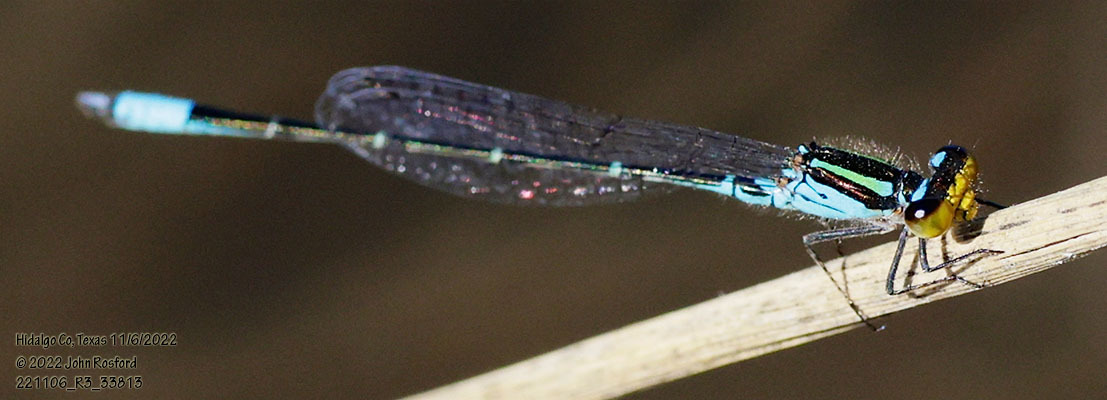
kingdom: Animalia
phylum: Arthropoda
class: Insecta
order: Odonata
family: Coenagrionidae
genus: Neoerythromma
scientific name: Neoerythromma cultellatum
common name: Caribbean yellowface
